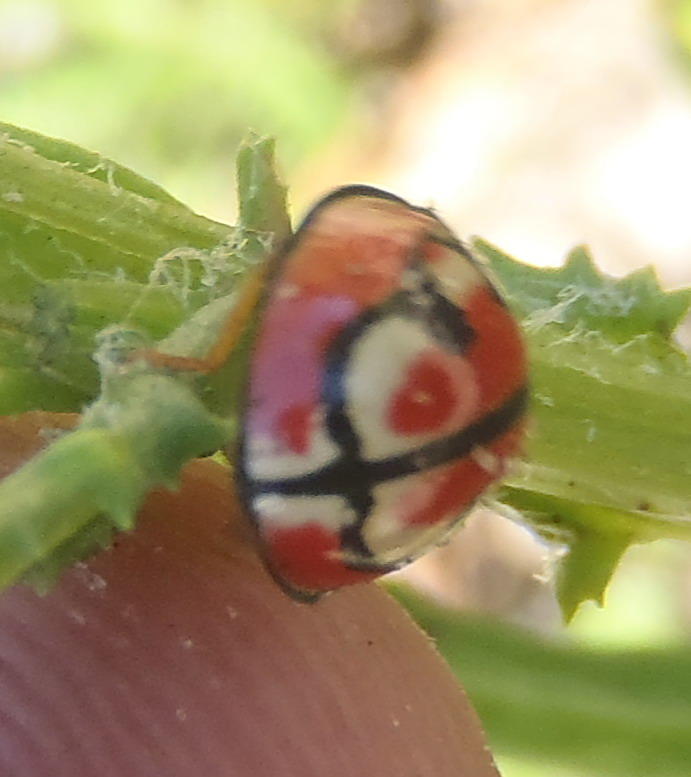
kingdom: Animalia
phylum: Arthropoda
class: Insecta
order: Coleoptera
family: Coccinellidae
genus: Cheilomenes
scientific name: Cheilomenes
